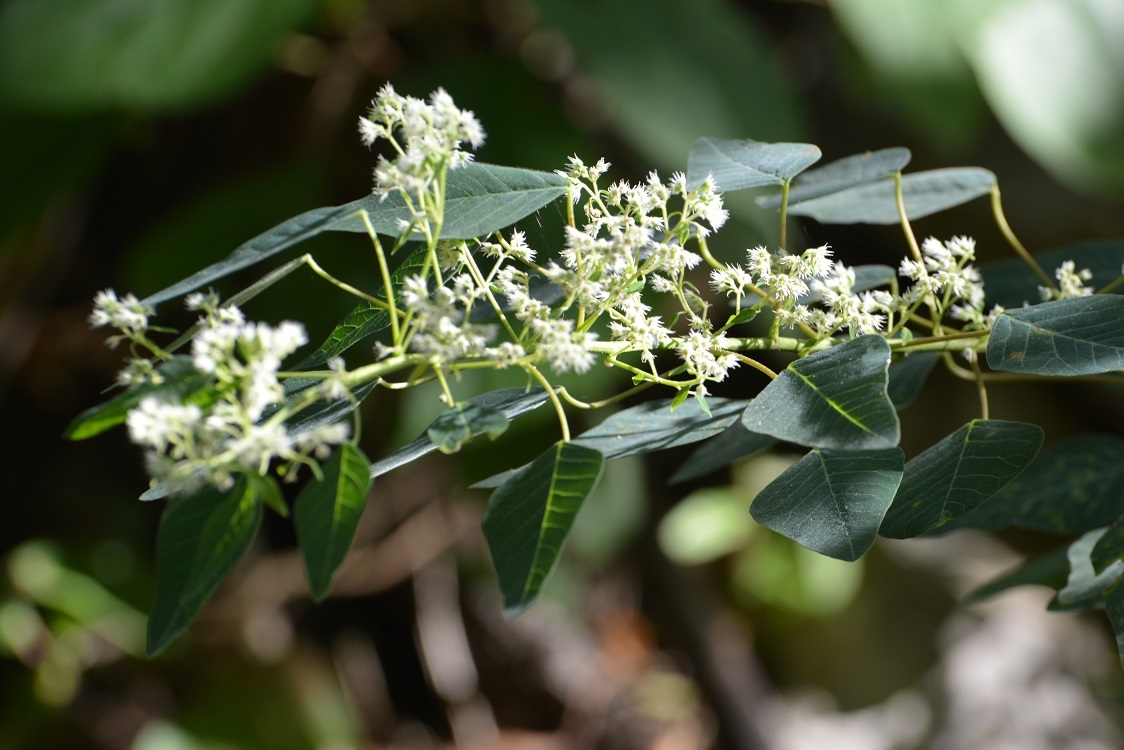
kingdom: Plantae
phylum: Tracheophyta
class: Magnoliopsida
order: Malpighiales
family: Euphorbiaceae
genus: Euphorbia
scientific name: Euphorbia segoviensis
